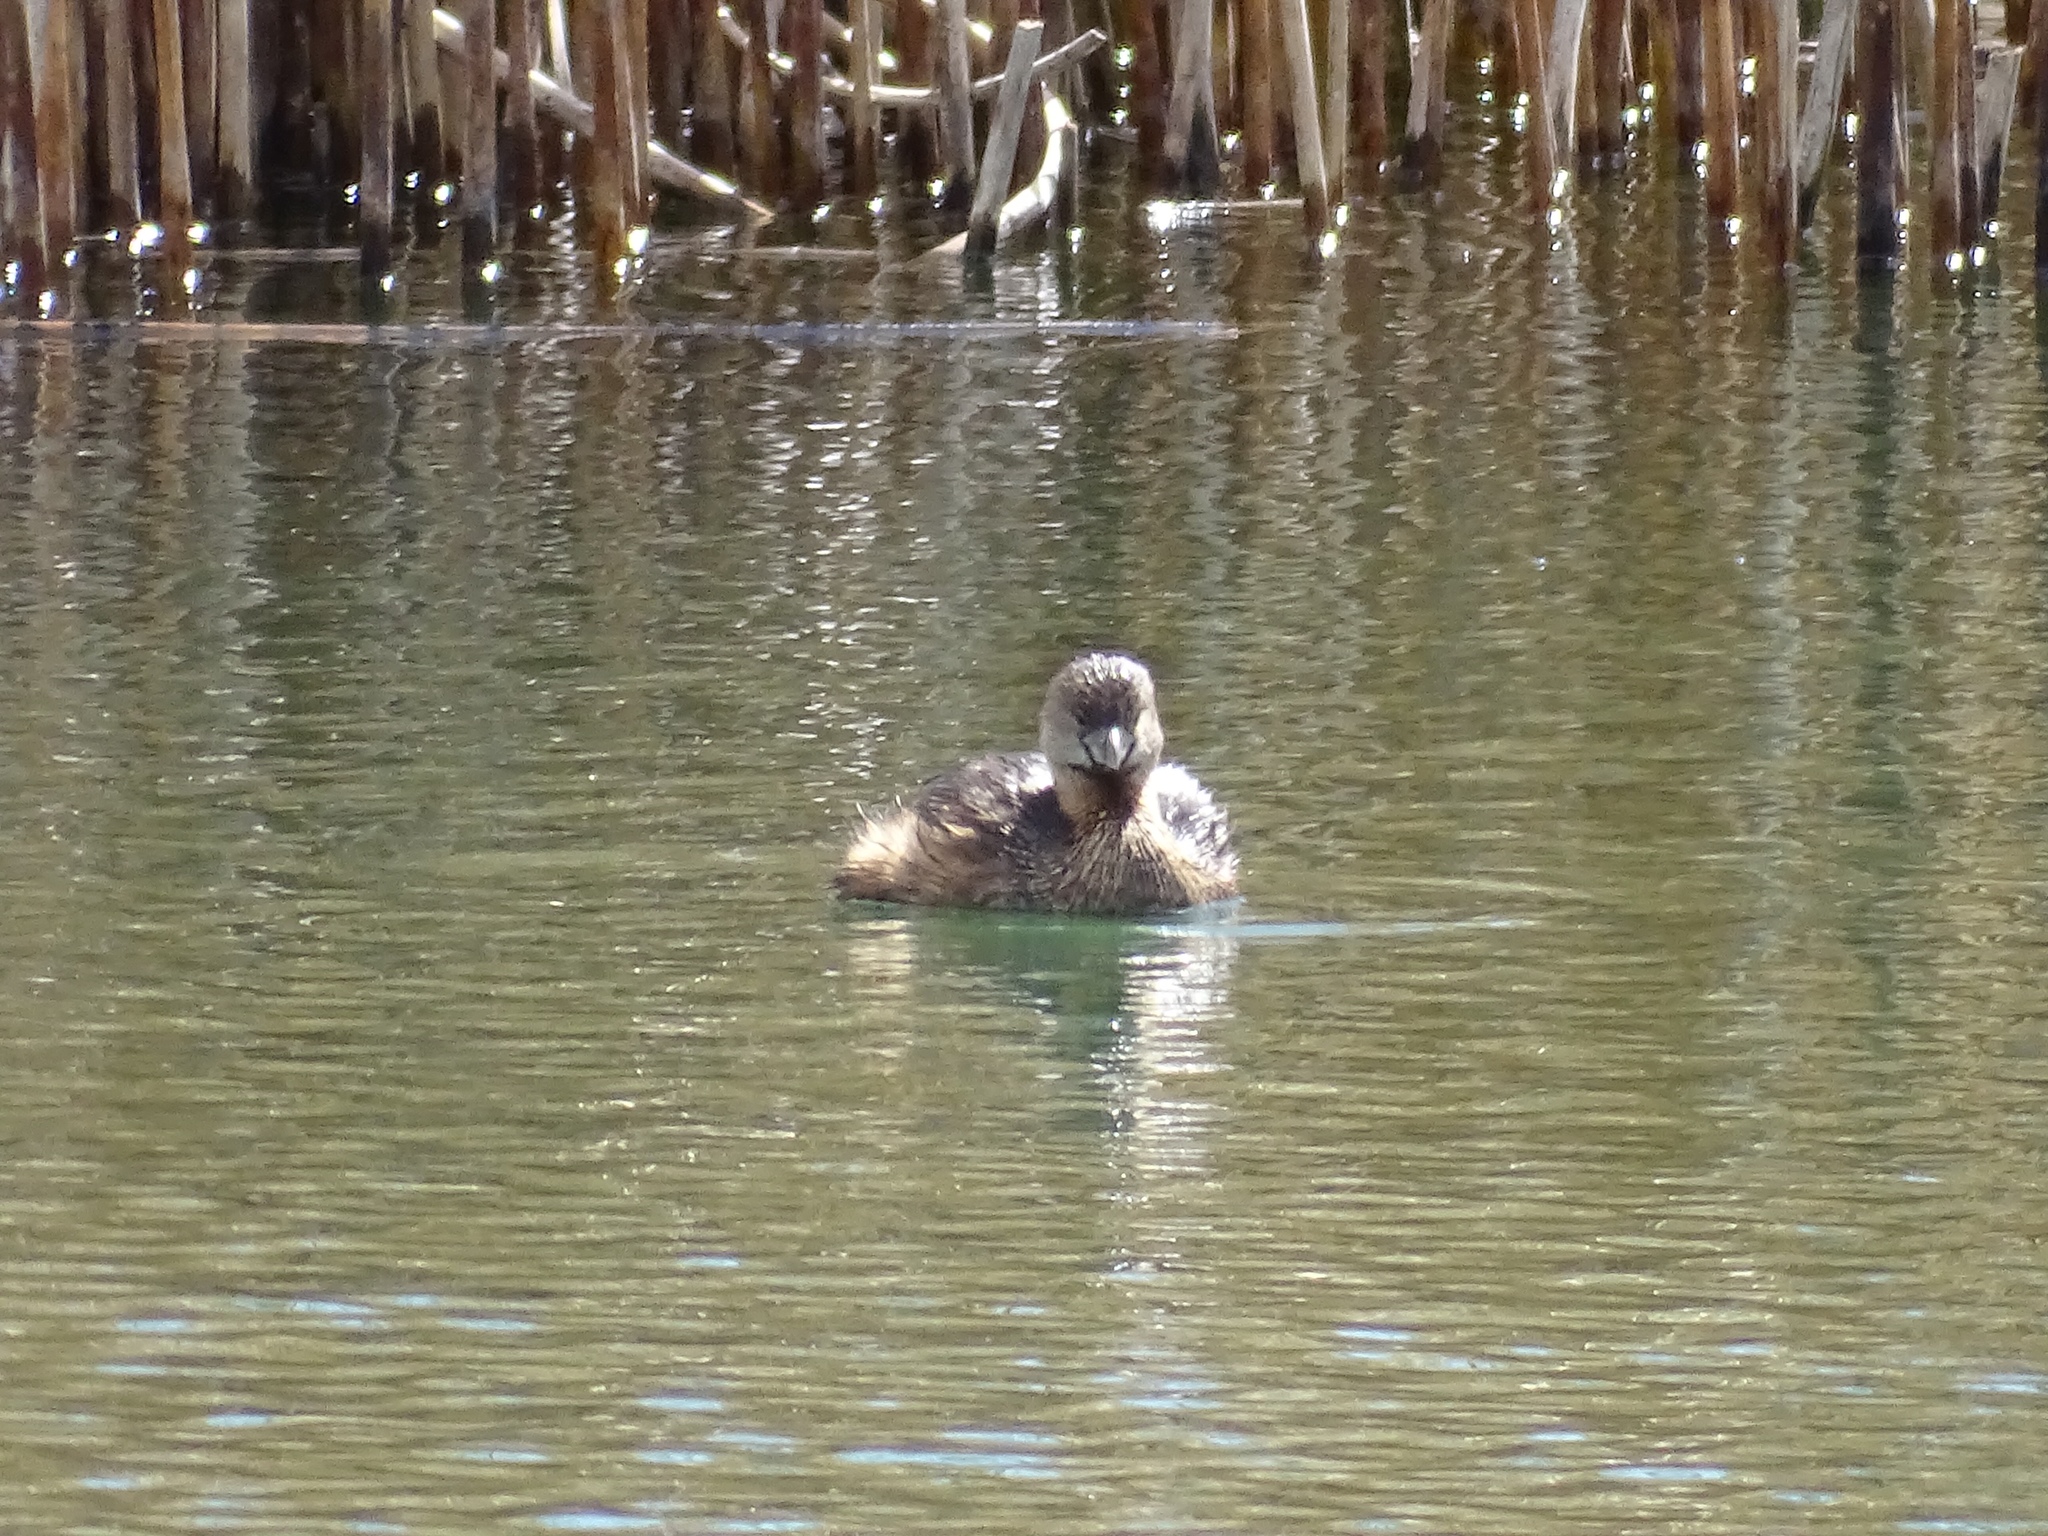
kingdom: Animalia
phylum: Chordata
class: Aves
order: Podicipediformes
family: Podicipedidae
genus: Podilymbus
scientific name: Podilymbus podiceps
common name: Pied-billed grebe
